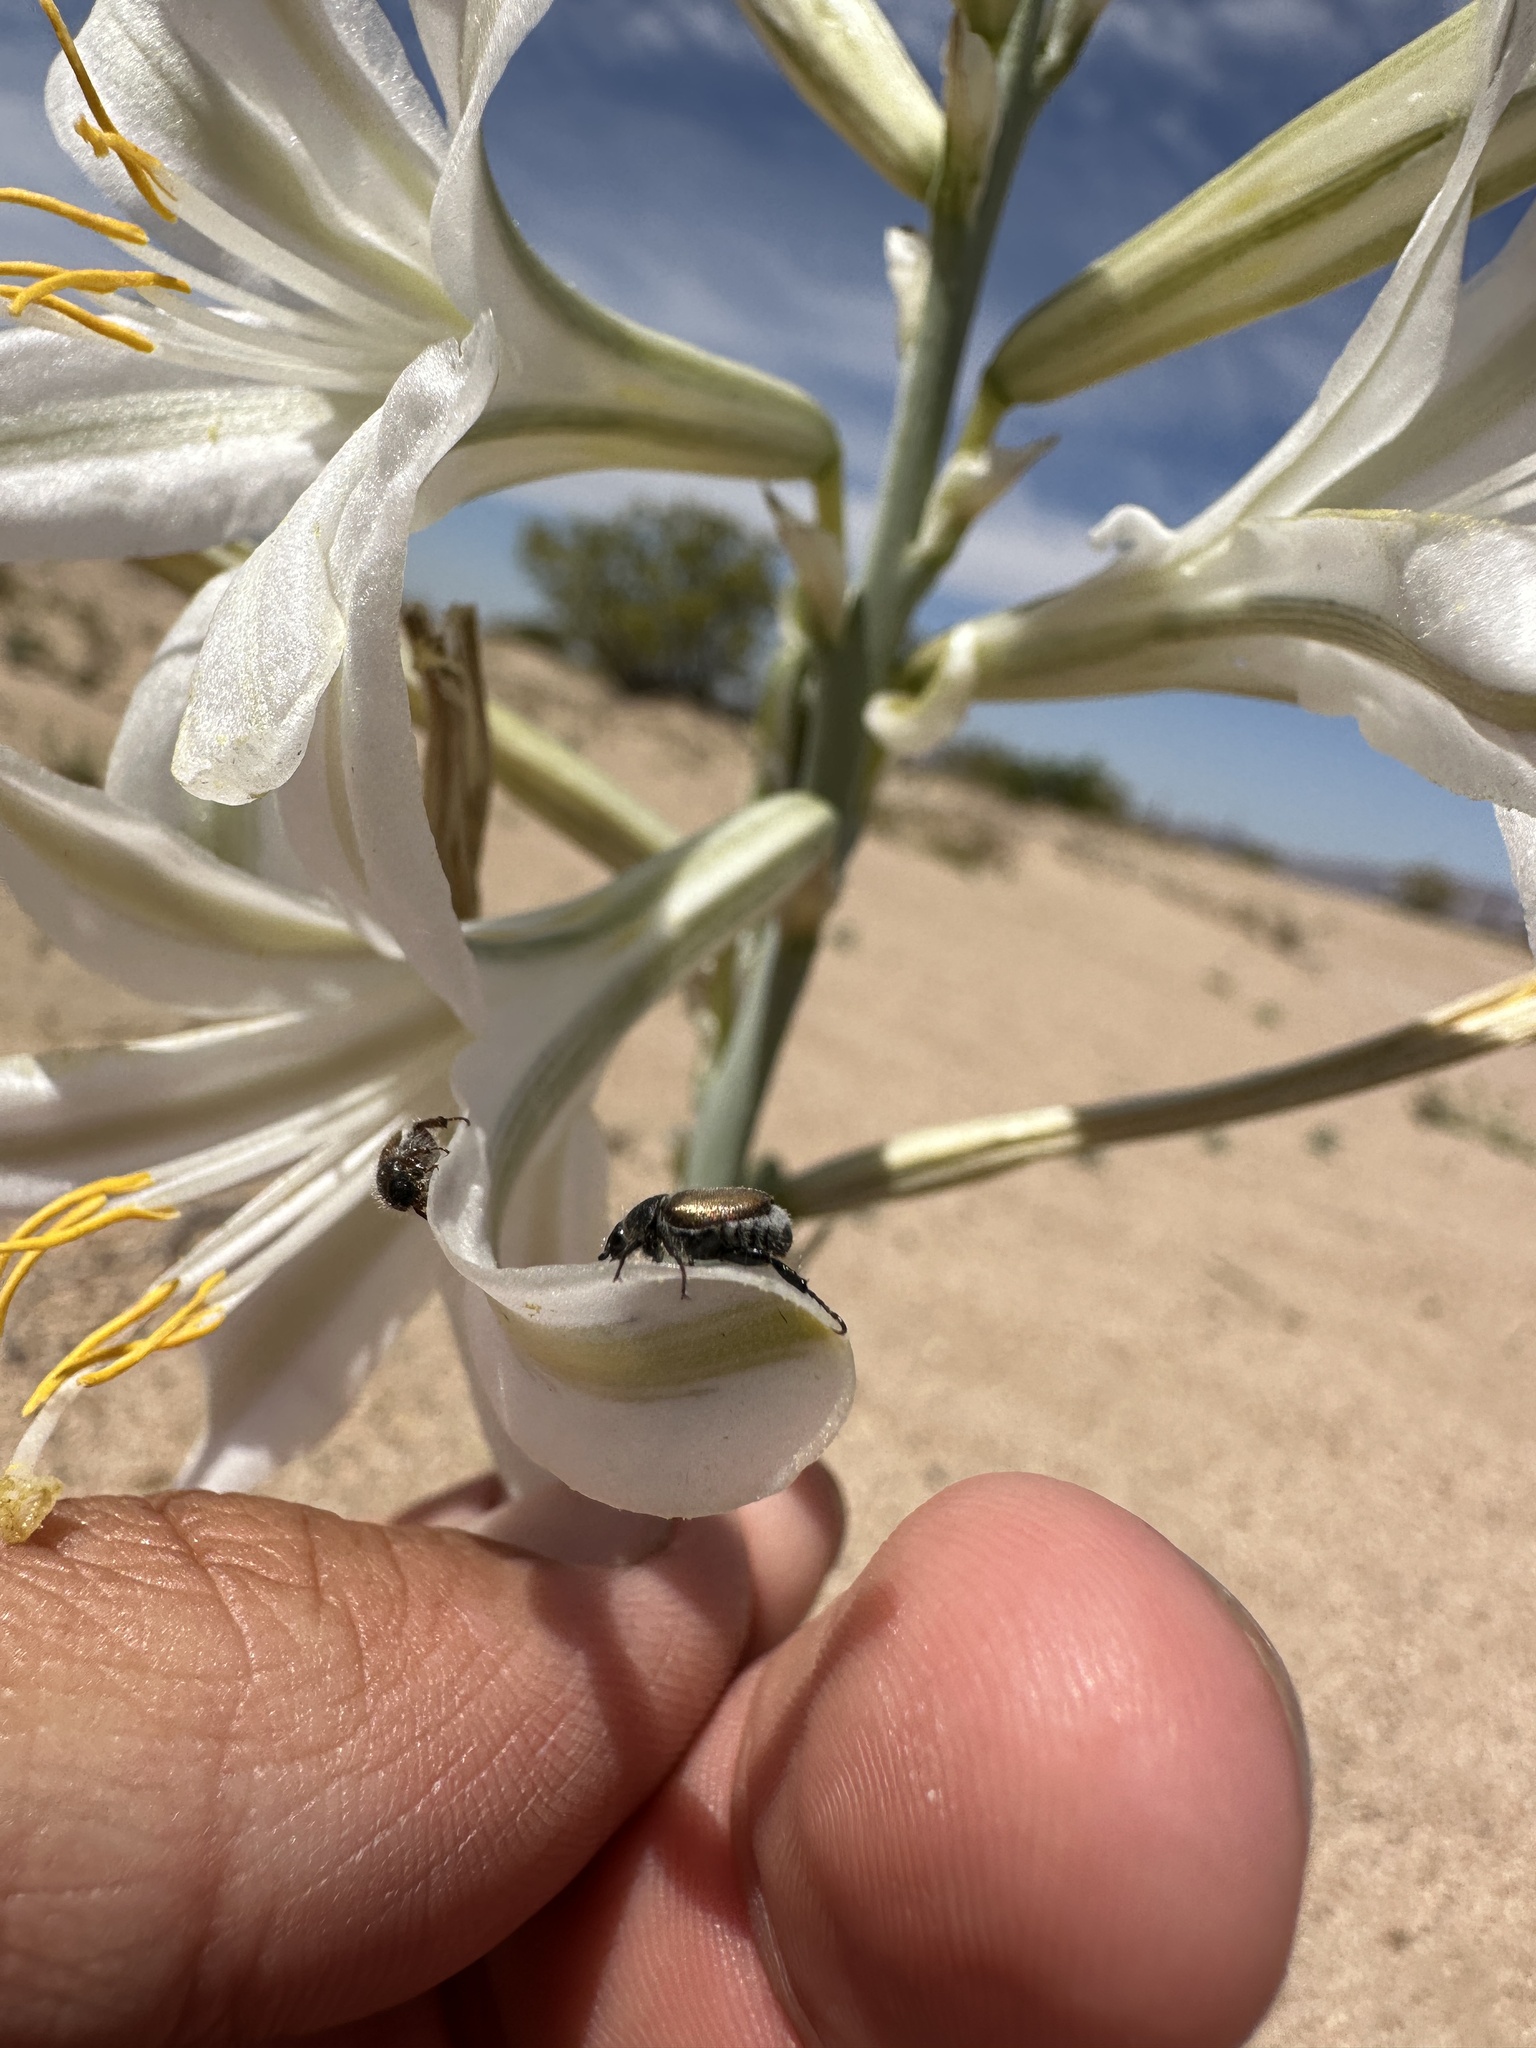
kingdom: Plantae
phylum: Tracheophyta
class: Liliopsida
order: Asparagales
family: Asparagaceae
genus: Hesperocallis
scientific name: Hesperocallis undulata
